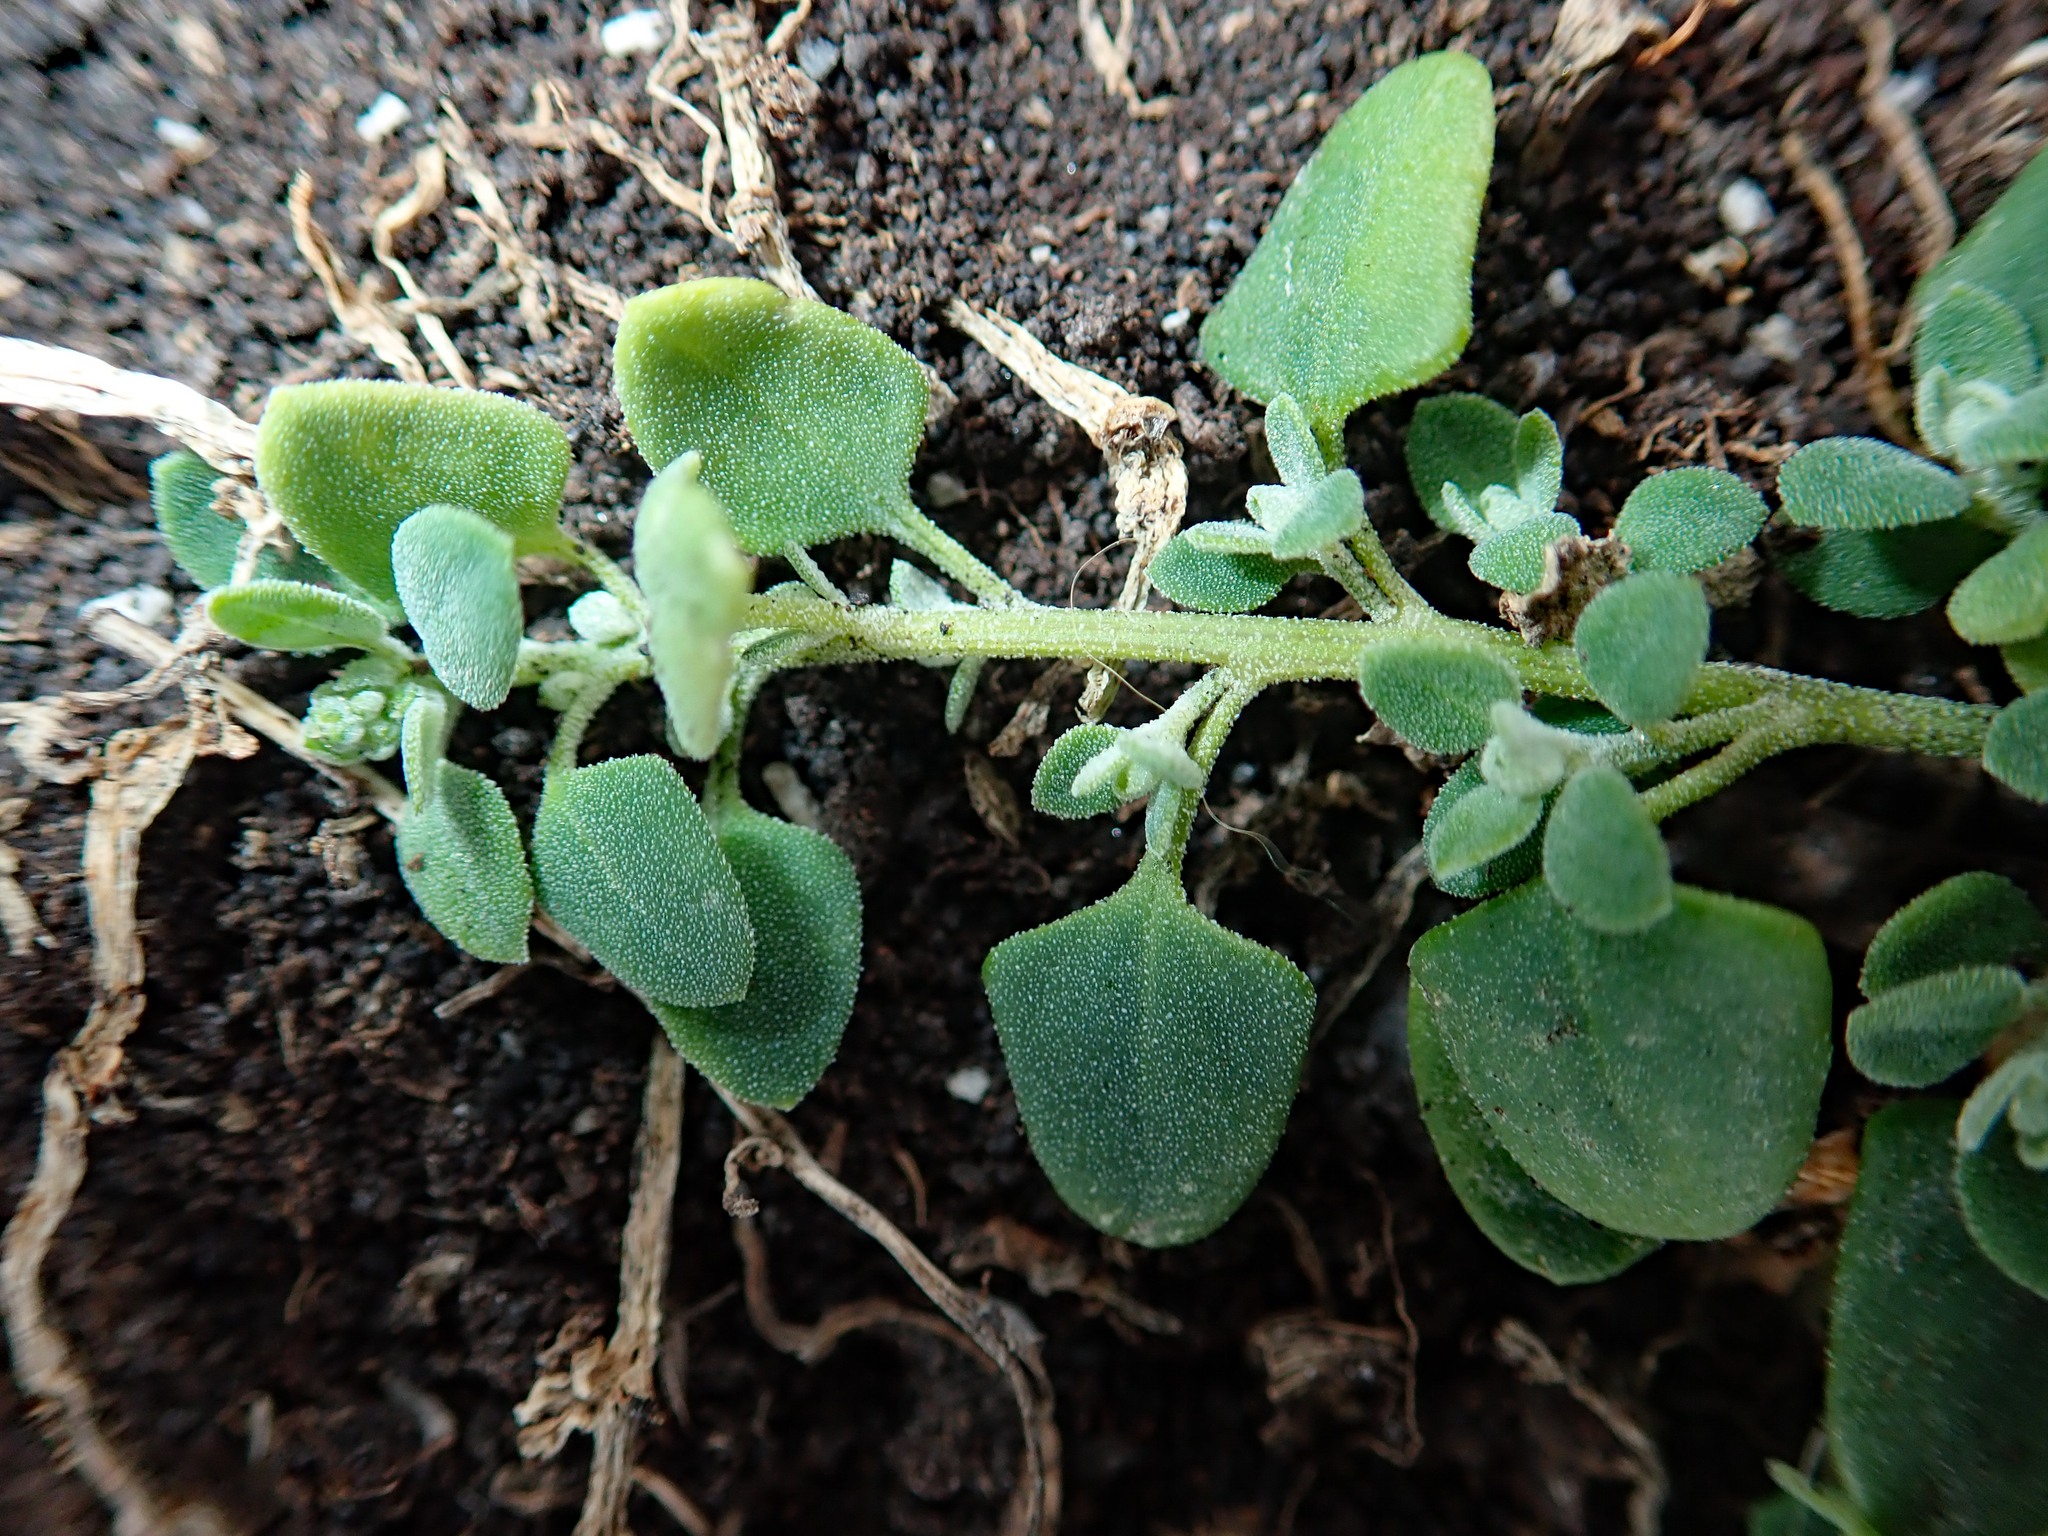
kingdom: Plantae
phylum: Tracheophyta
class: Magnoliopsida
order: Caryophyllales
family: Amaranthaceae
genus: Chenopodium
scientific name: Chenopodium trigonon
